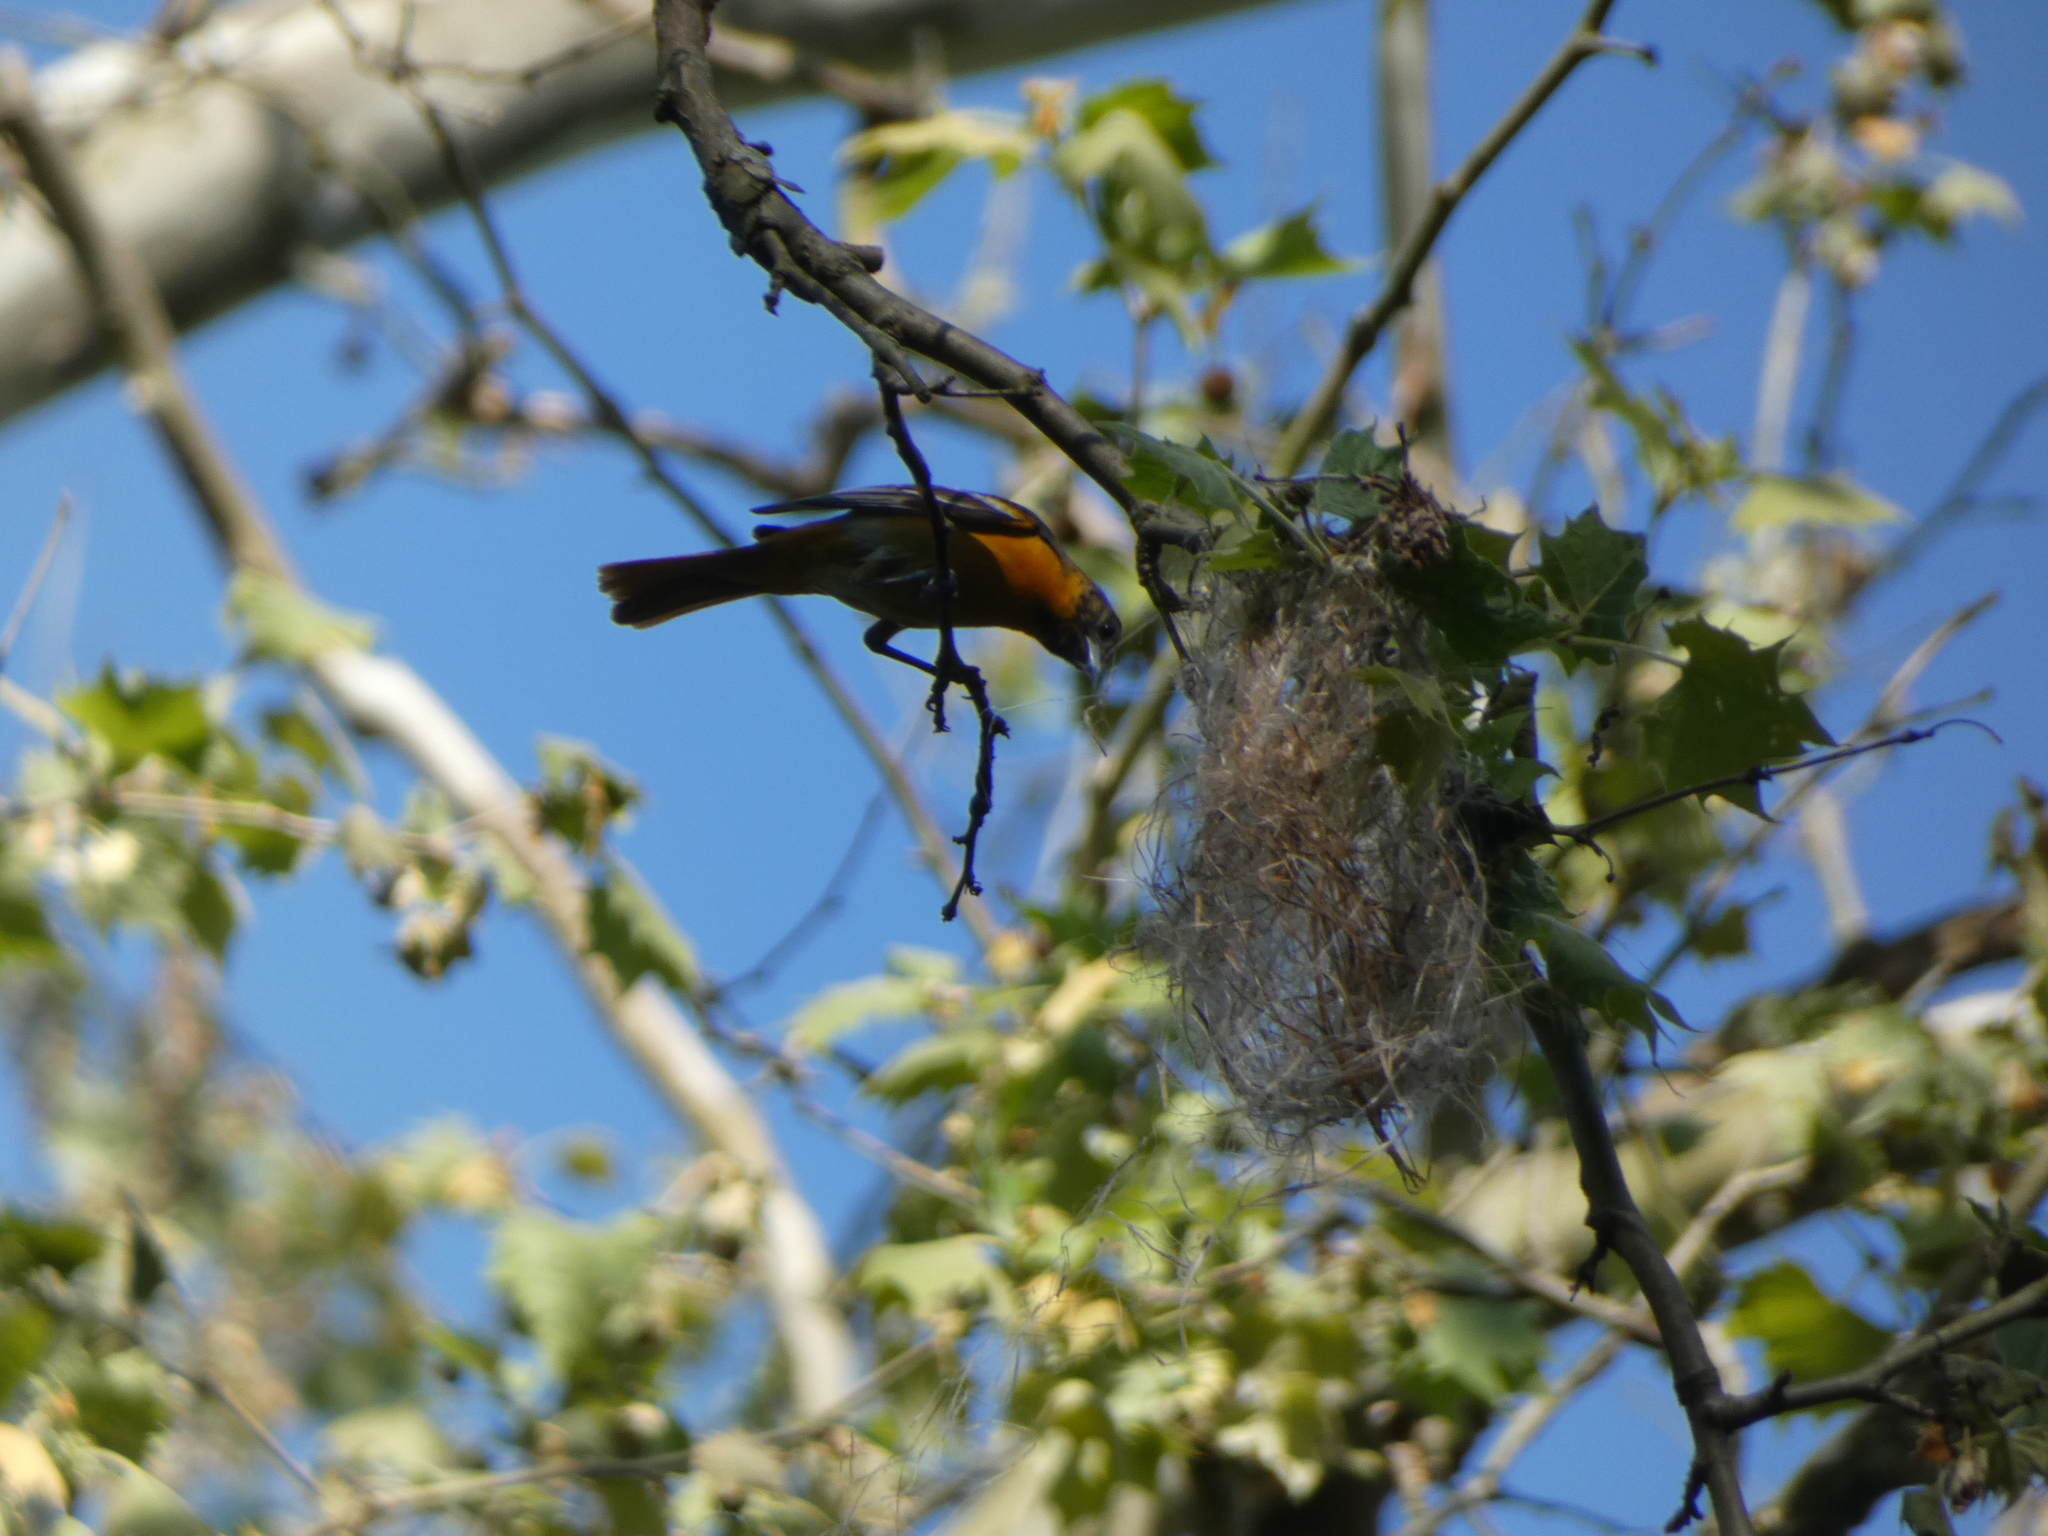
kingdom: Animalia
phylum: Chordata
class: Aves
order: Passeriformes
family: Icteridae
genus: Icterus
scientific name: Icterus galbula
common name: Baltimore oriole
